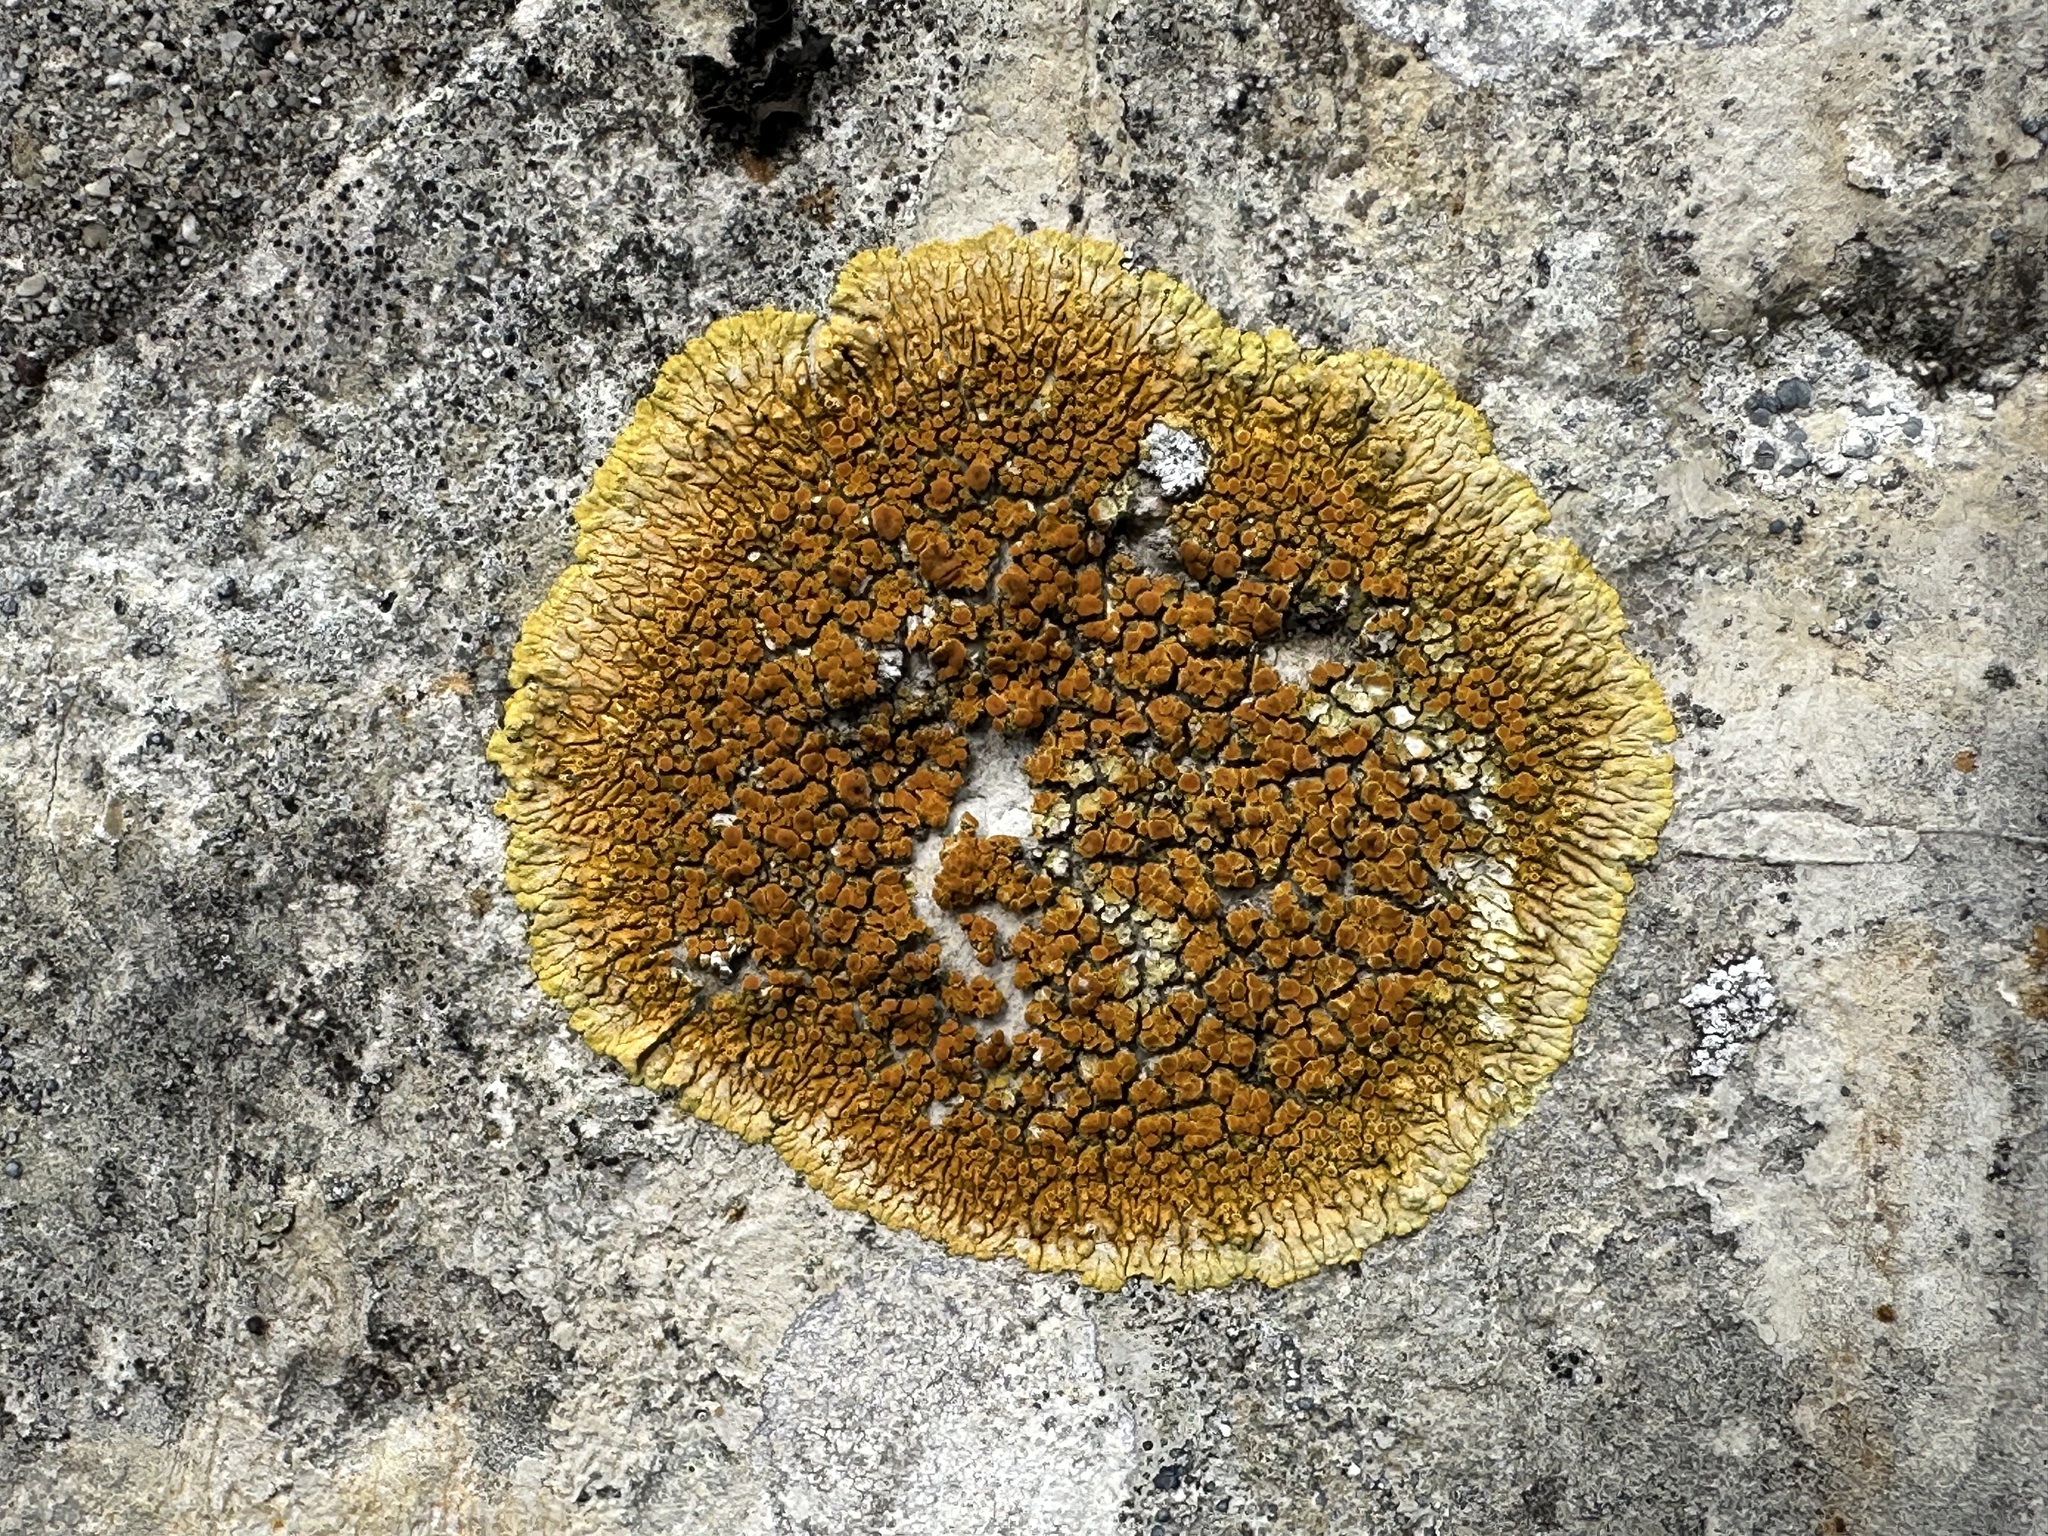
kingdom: Fungi
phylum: Ascomycota
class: Lecanoromycetes
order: Teloschistales
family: Teloschistaceae
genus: Variospora
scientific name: Variospora flavescens
